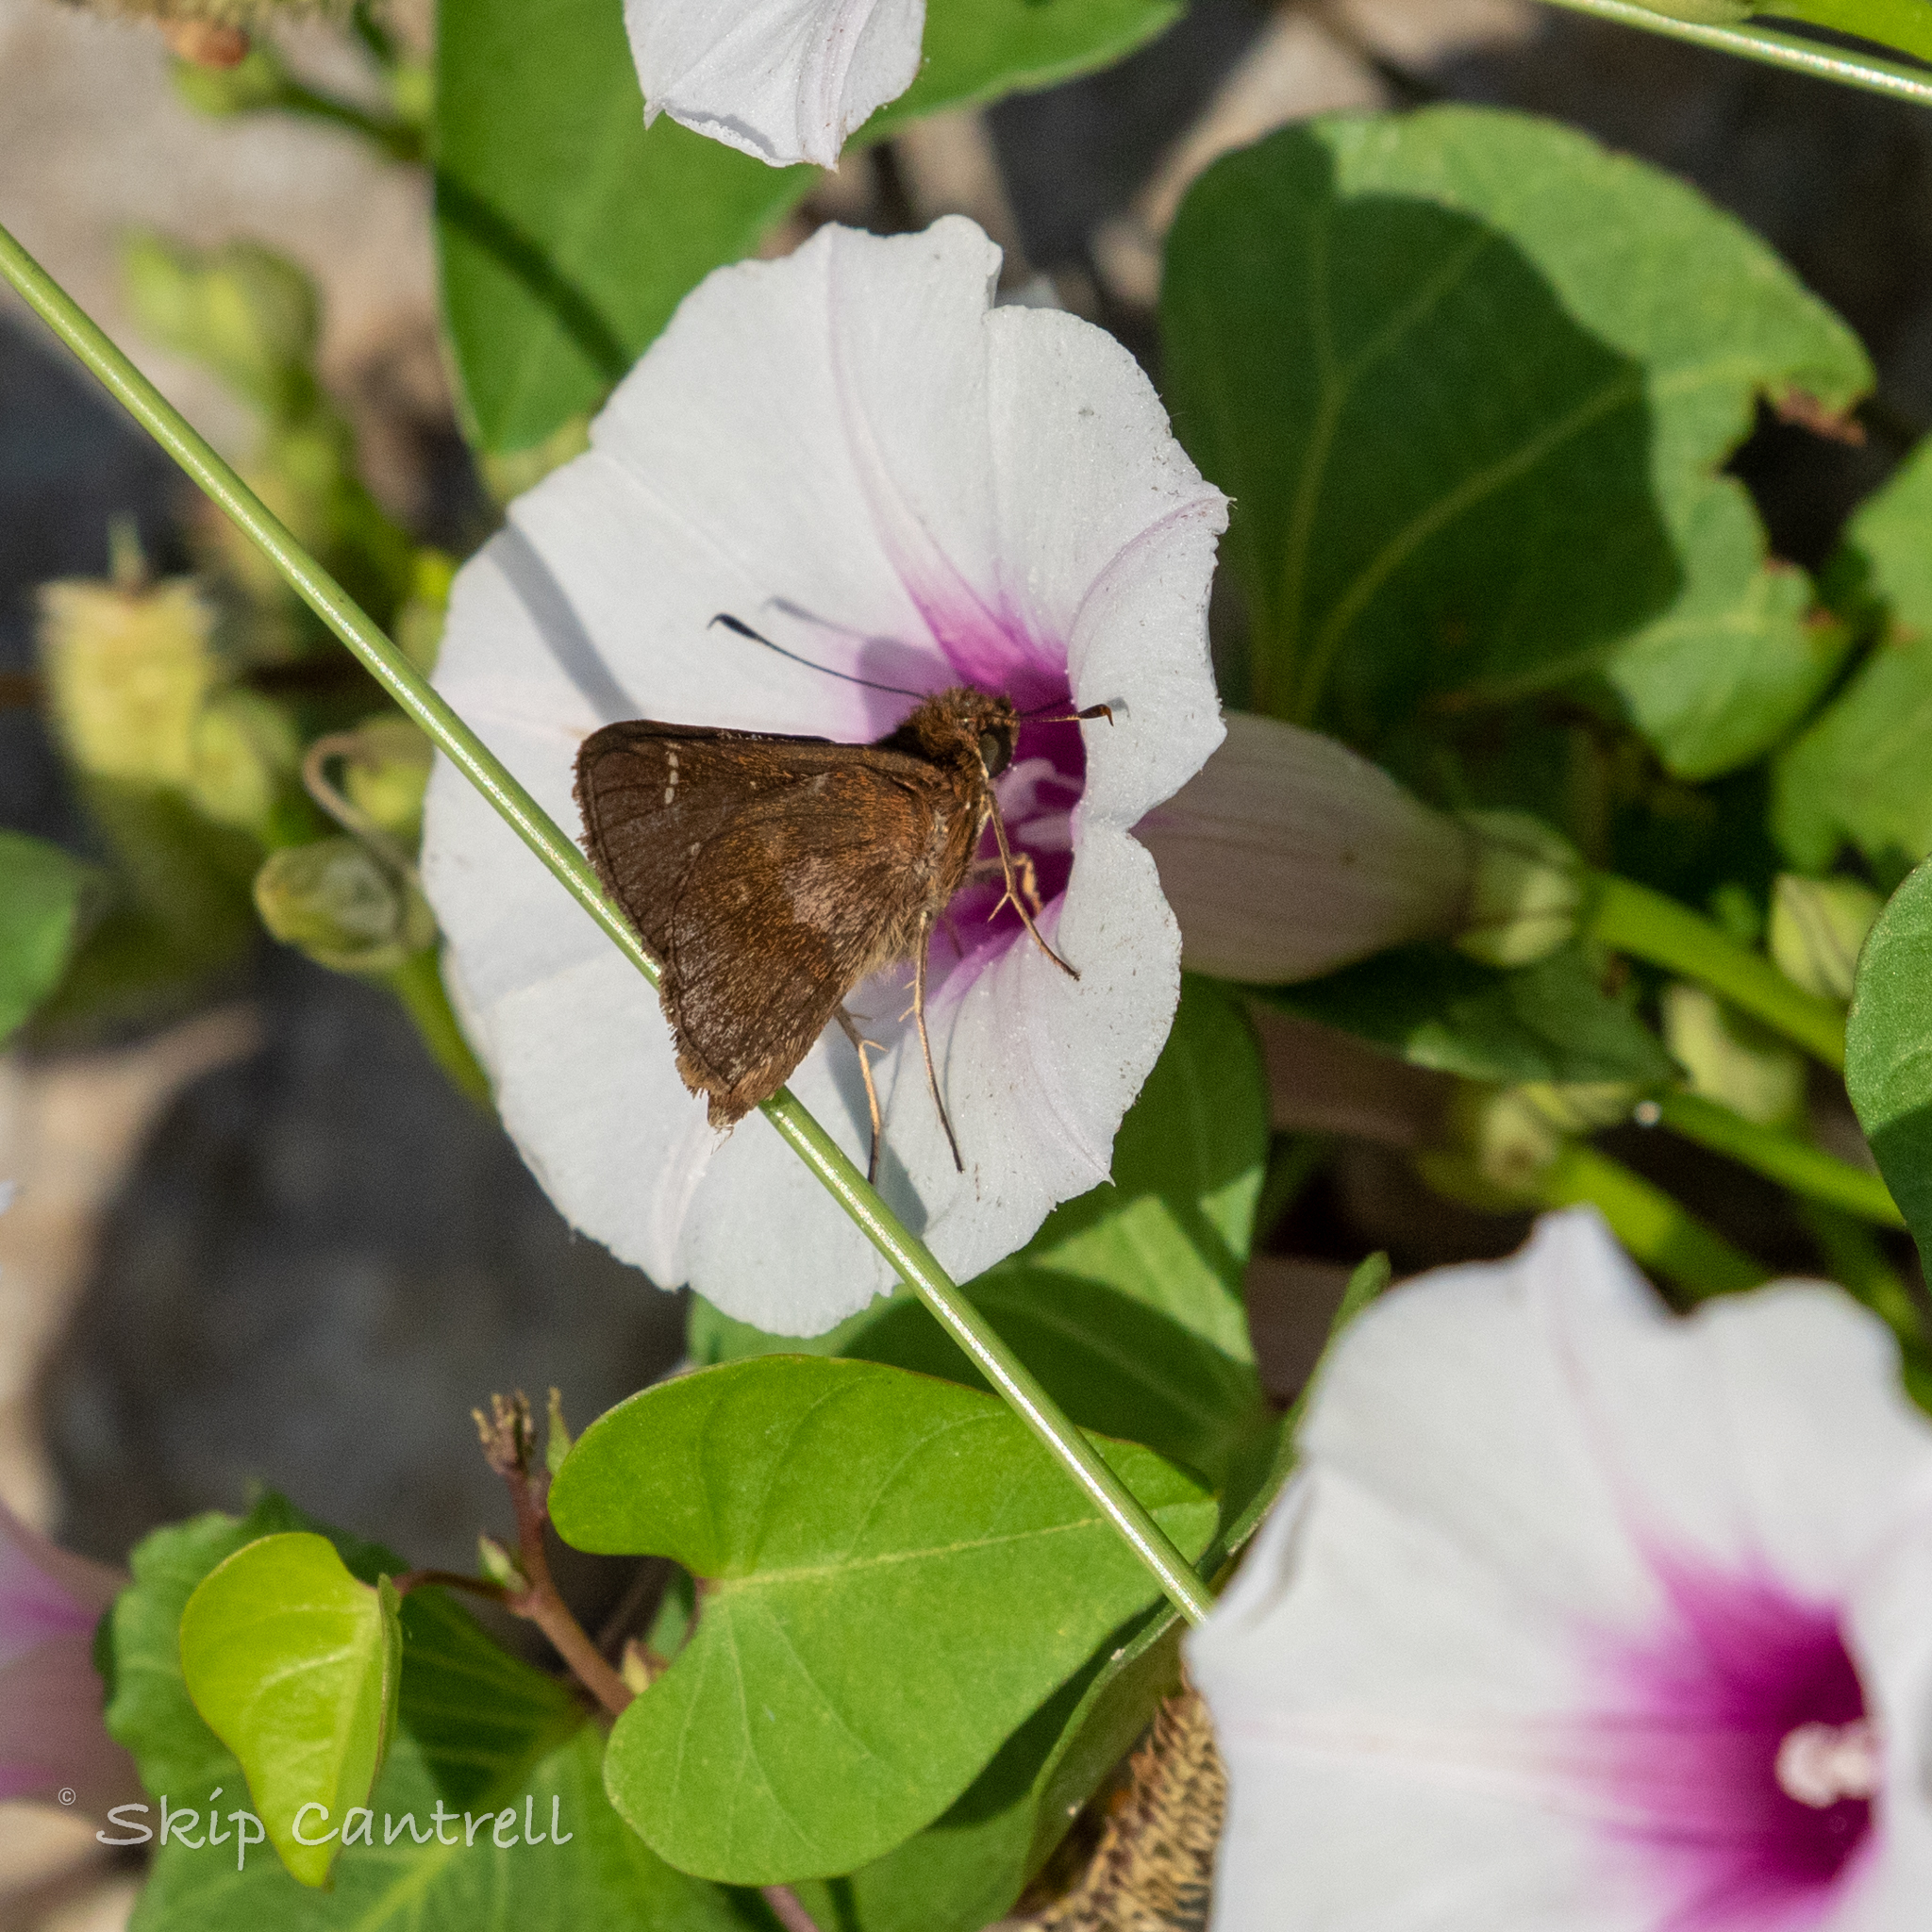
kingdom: Animalia
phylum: Arthropoda
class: Insecta
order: Lepidoptera
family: Hesperiidae
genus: Lerema
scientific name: Lerema accius
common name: Clouded skipper
